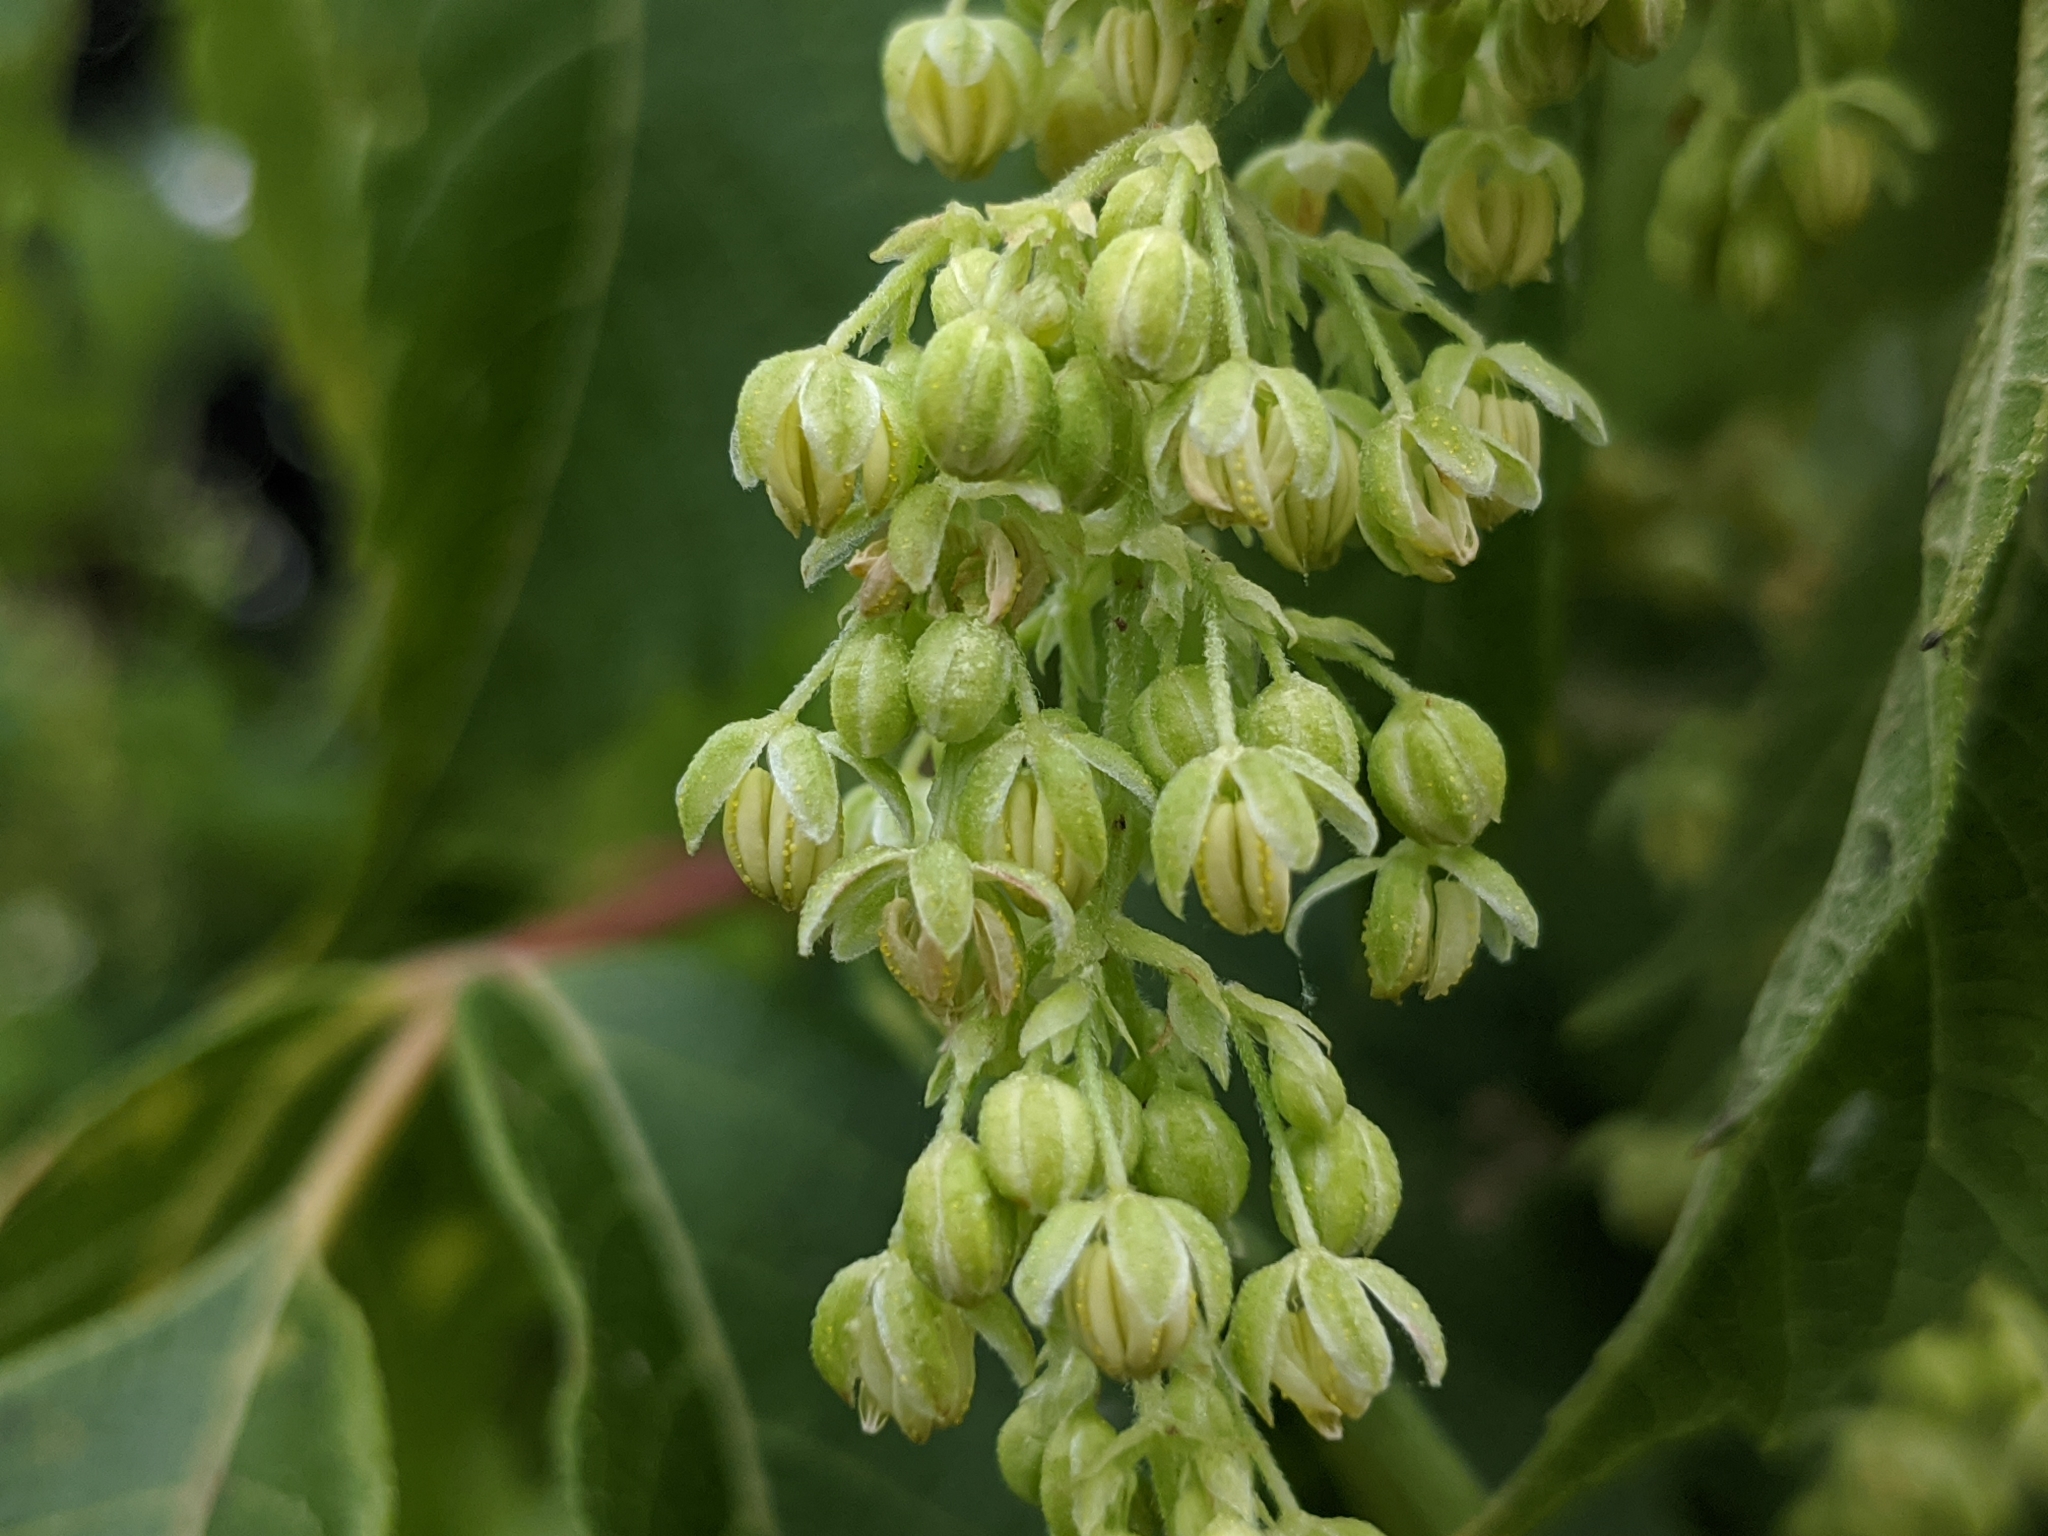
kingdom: Plantae
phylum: Tracheophyta
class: Magnoliopsida
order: Rosales
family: Cannabaceae
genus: Humulus
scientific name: Humulus lupulus
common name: Hop
